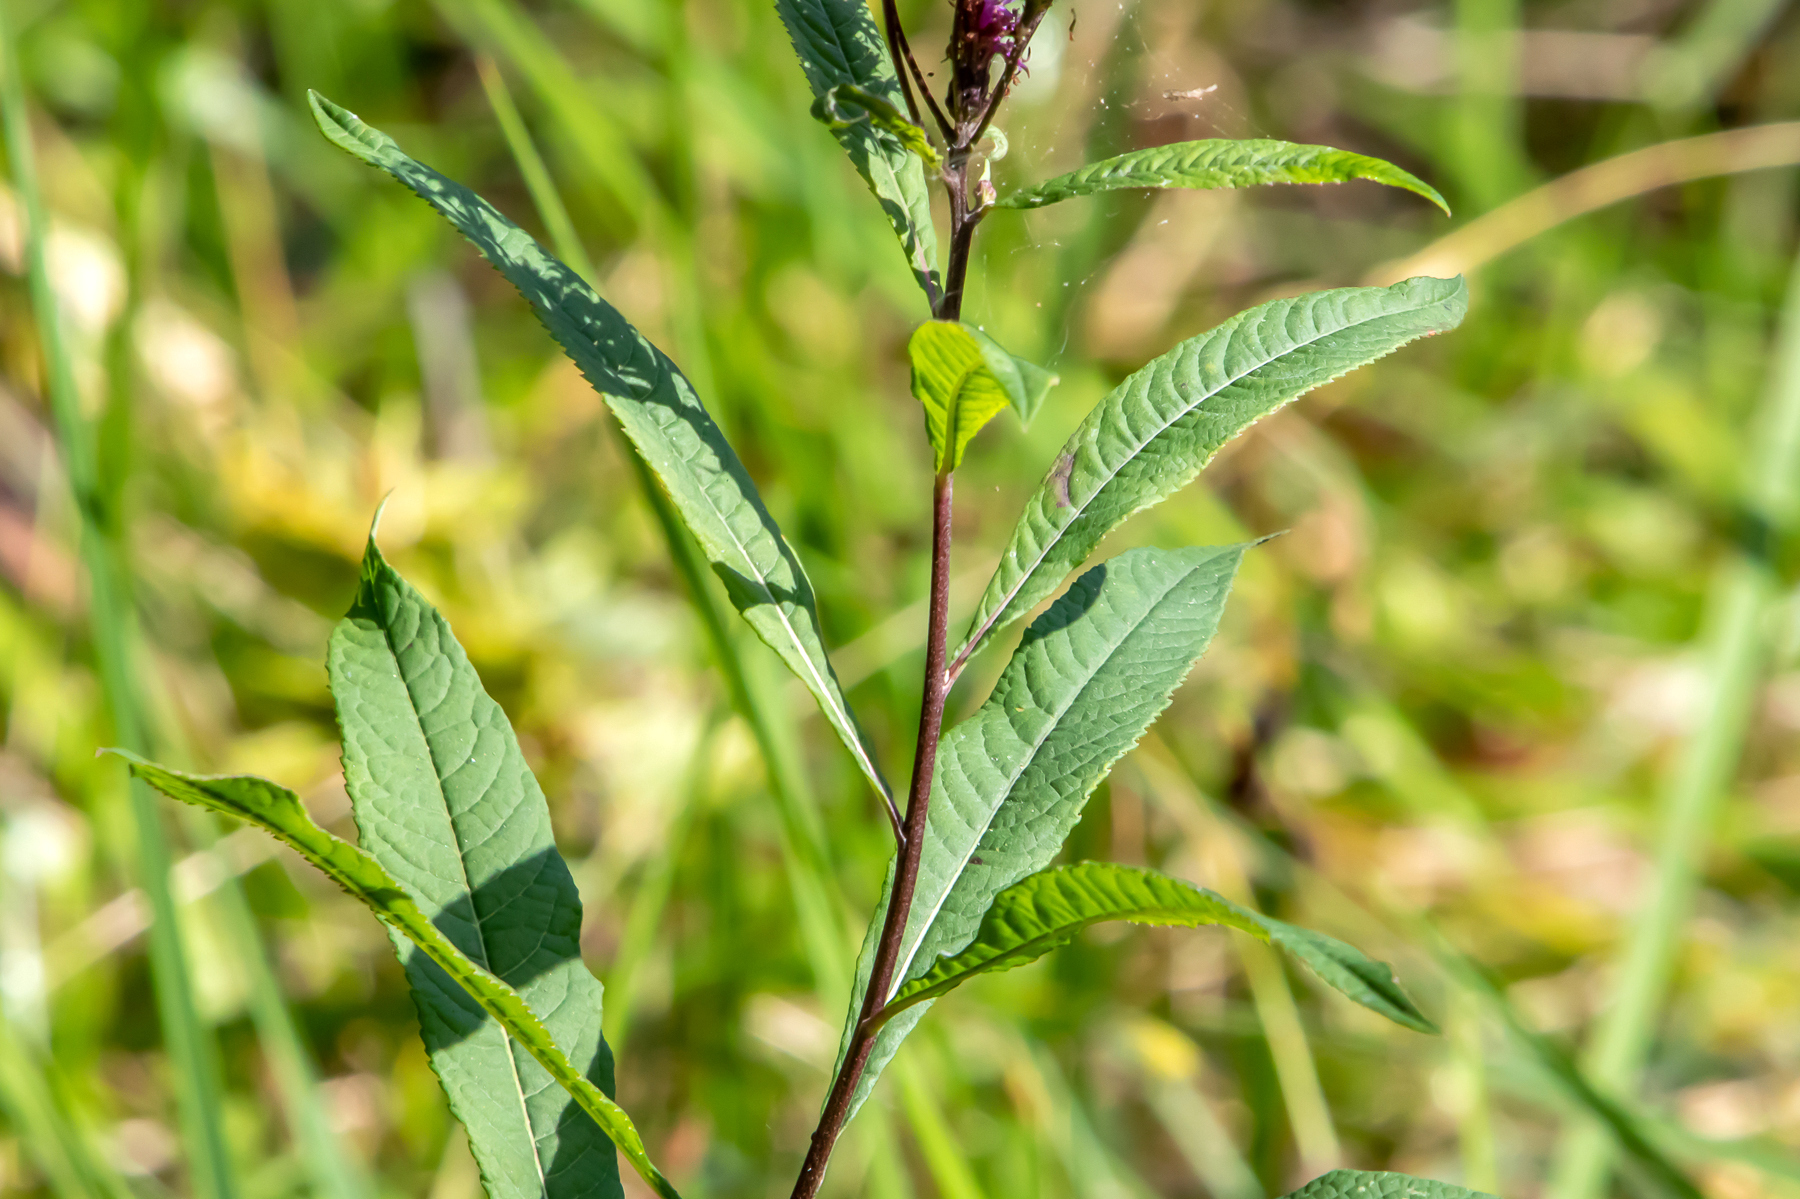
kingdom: Plantae
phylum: Tracheophyta
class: Magnoliopsida
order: Asterales
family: Asteraceae
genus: Vernonia
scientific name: Vernonia gigantea
